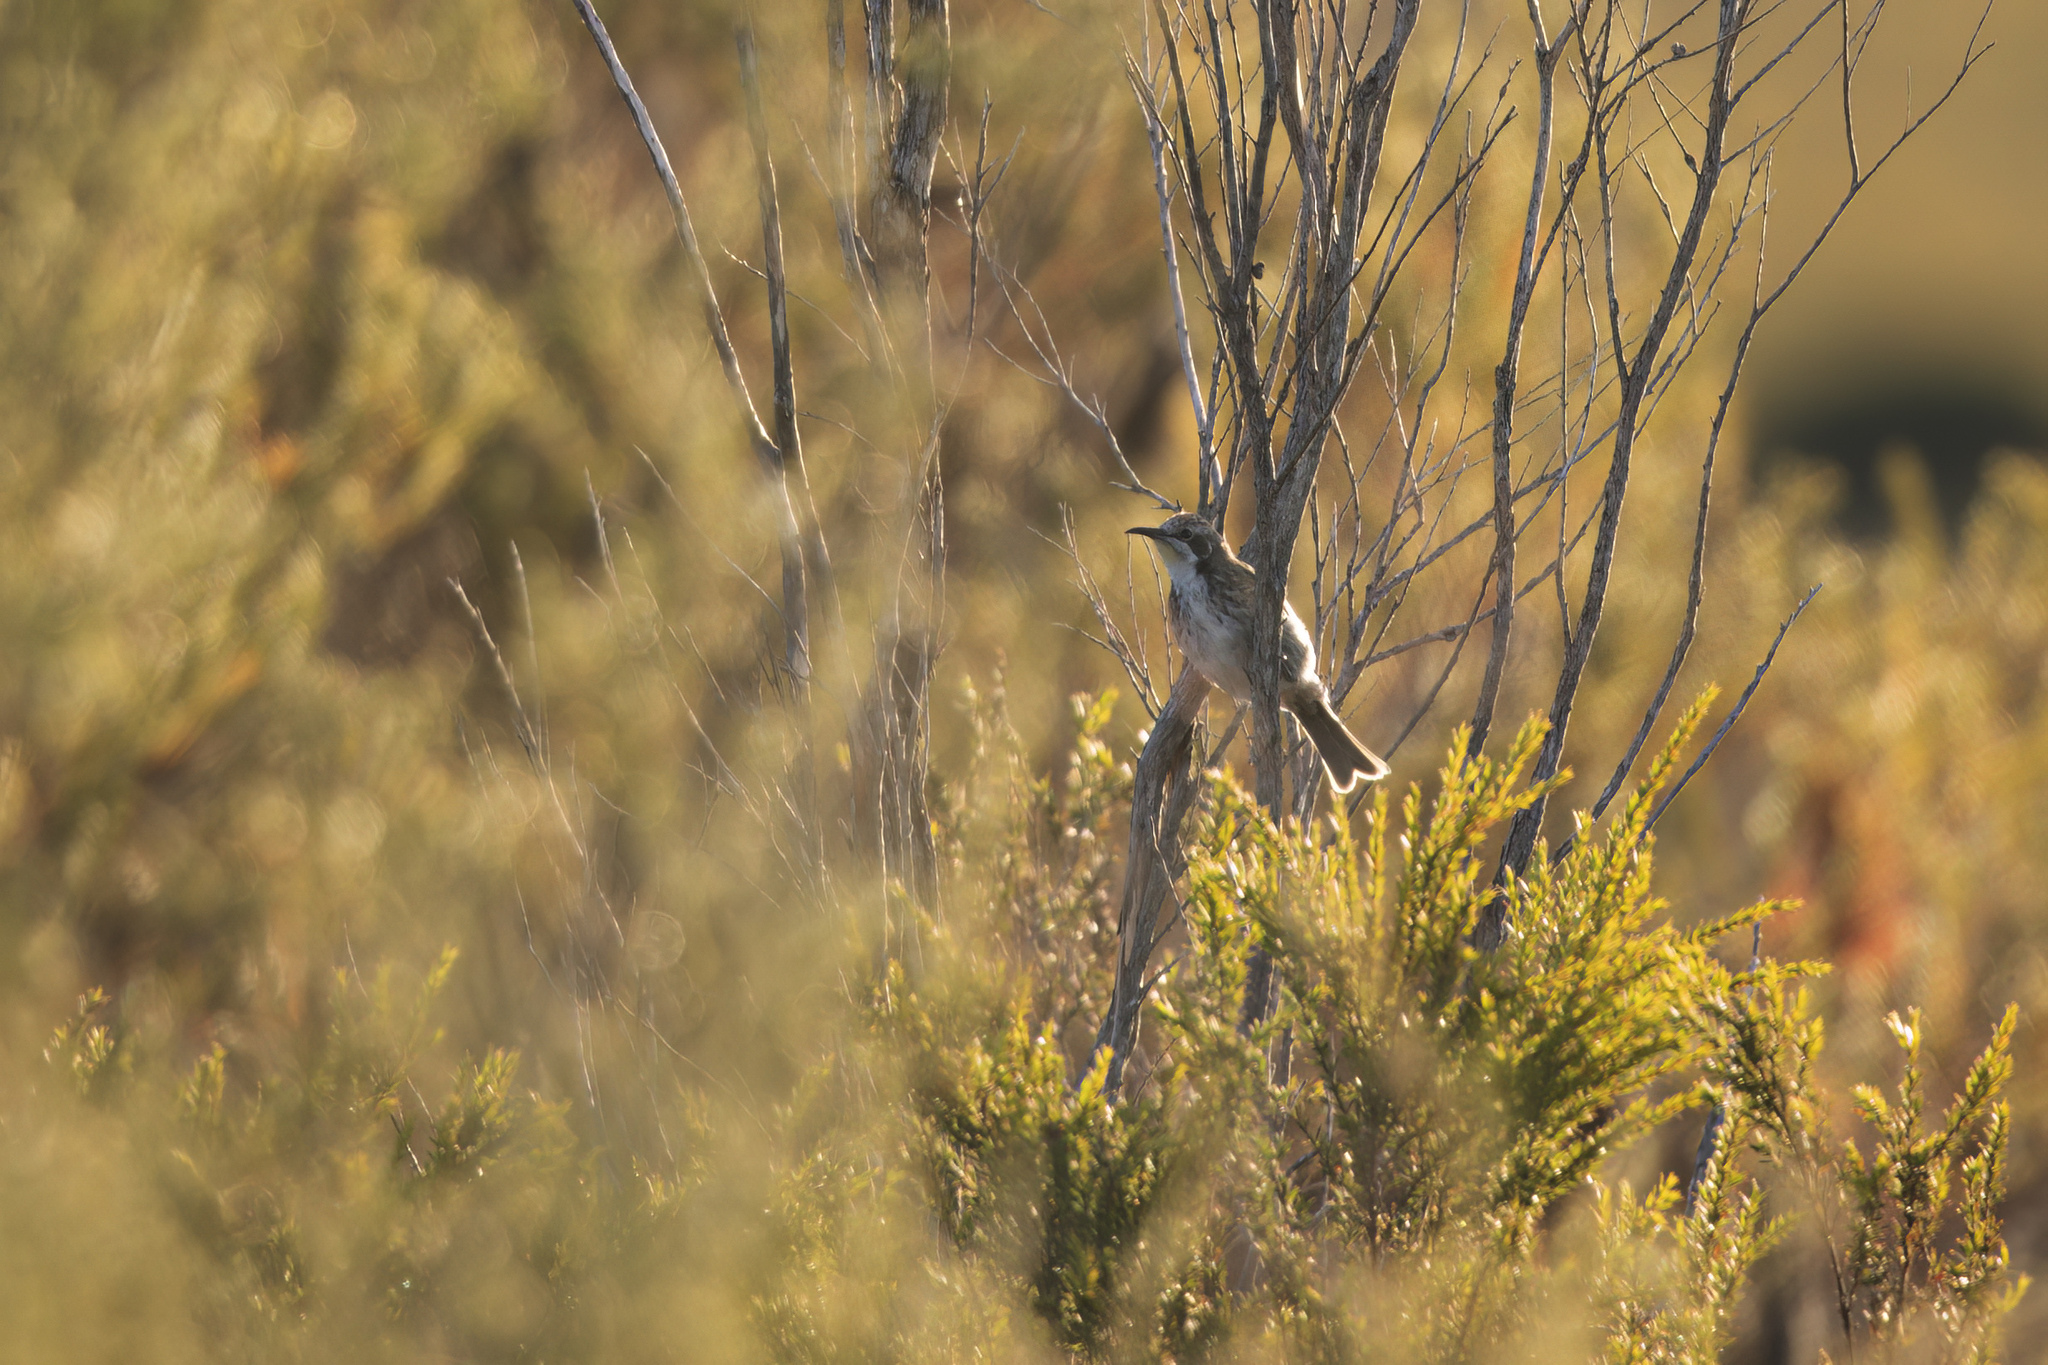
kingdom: Animalia
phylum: Chordata
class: Aves
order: Passeriformes
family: Meliphagidae
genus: Gliciphila
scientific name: Gliciphila melanops
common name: Tawny-crowned honeyeater
